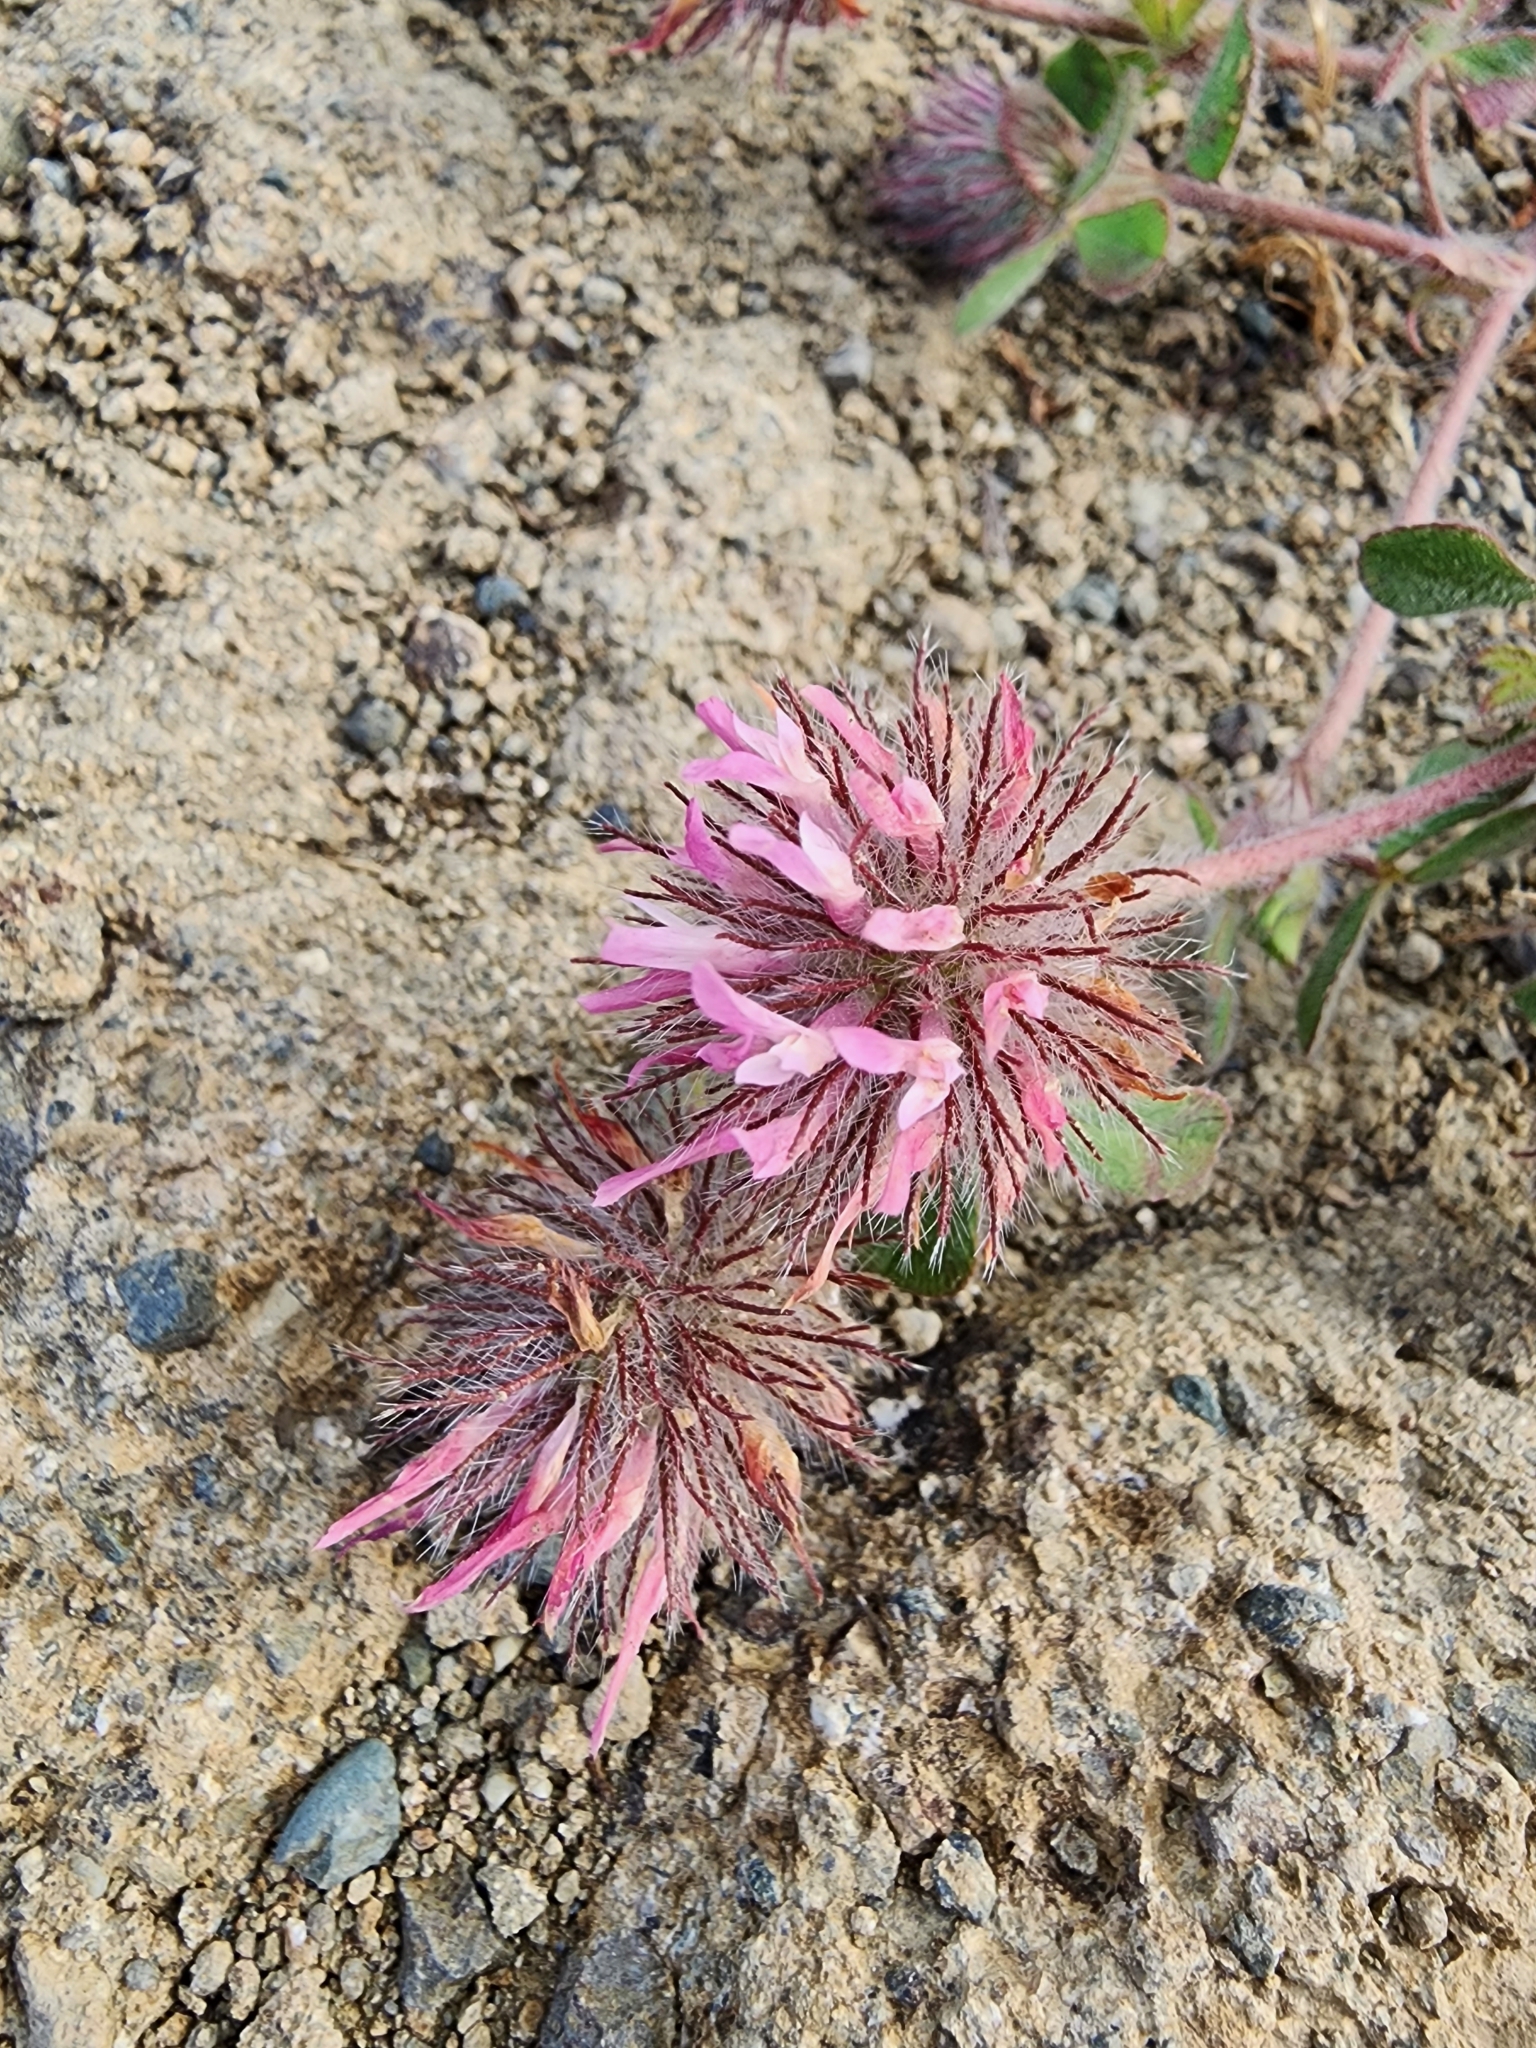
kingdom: Plantae
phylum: Tracheophyta
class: Magnoliopsida
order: Fabales
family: Fabaceae
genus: Trifolium
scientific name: Trifolium hirtum
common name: Rose clover
